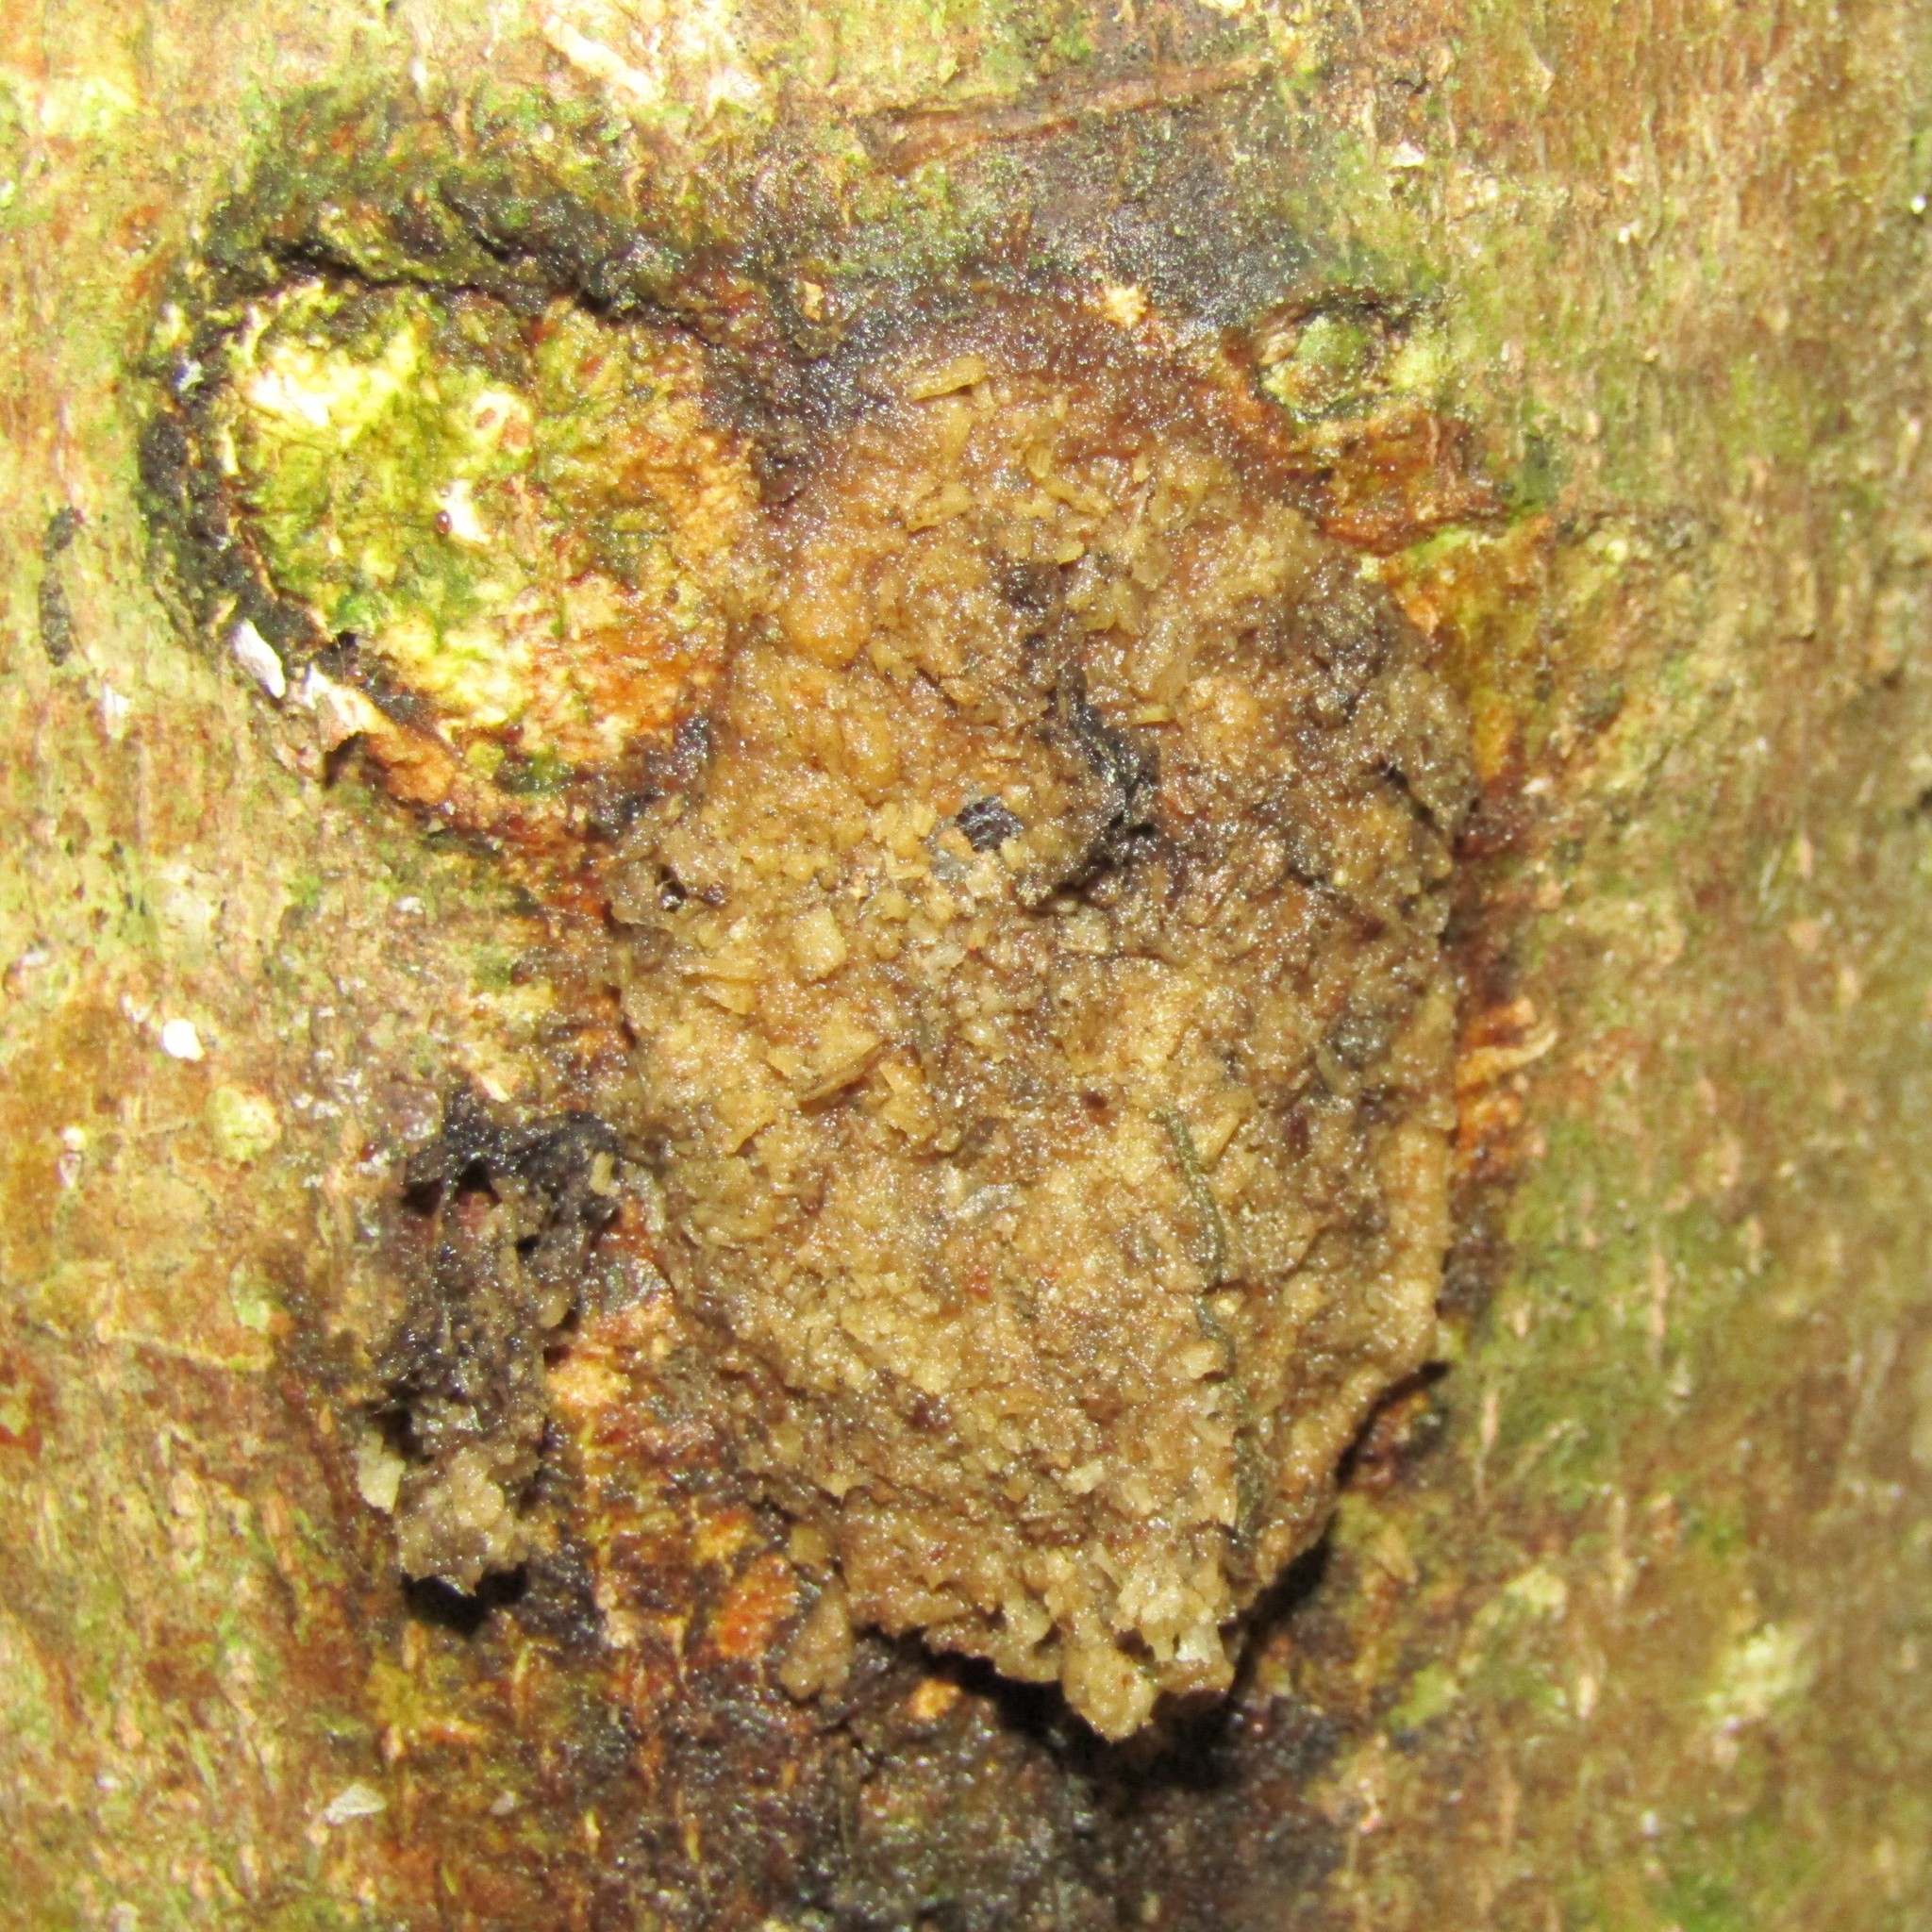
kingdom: Animalia
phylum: Arthropoda
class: Insecta
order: Lepidoptera
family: Hepialidae
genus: Aenetus
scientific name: Aenetus virescens
